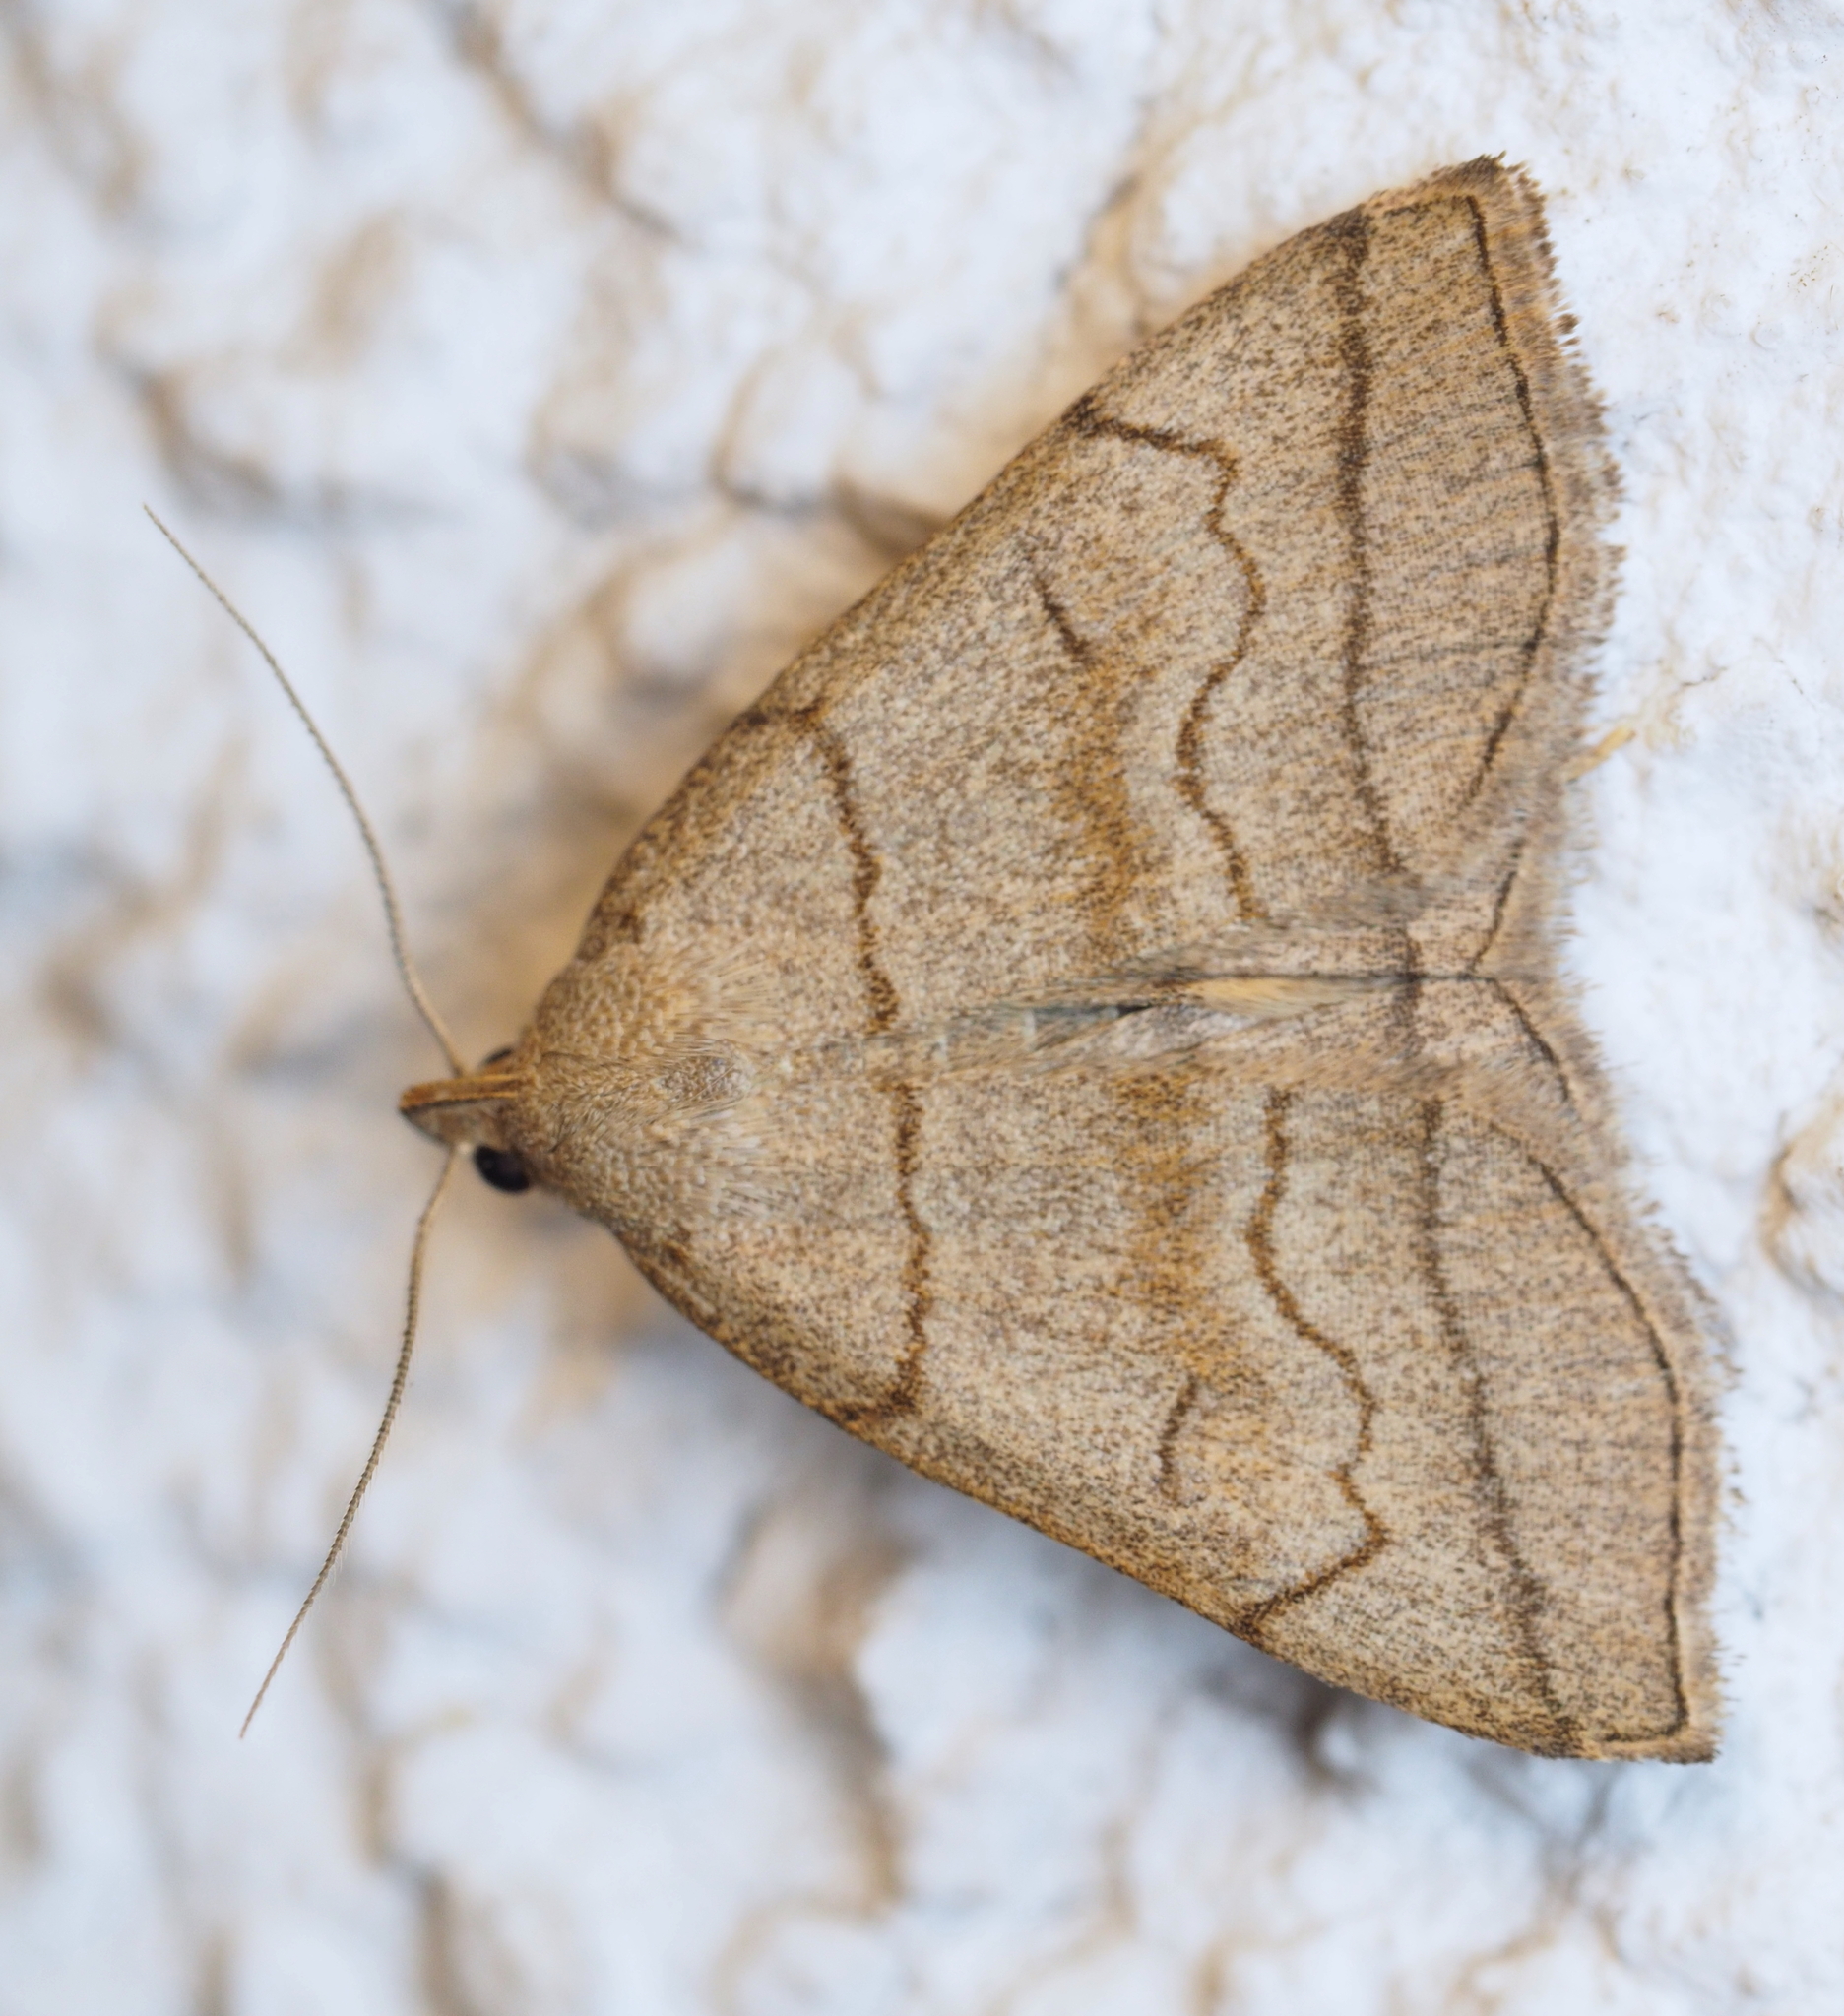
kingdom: Animalia
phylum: Arthropoda
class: Insecta
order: Lepidoptera
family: Erebidae
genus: Herminia
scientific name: Herminia tarsicrinalis
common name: Shaded fan-foot
